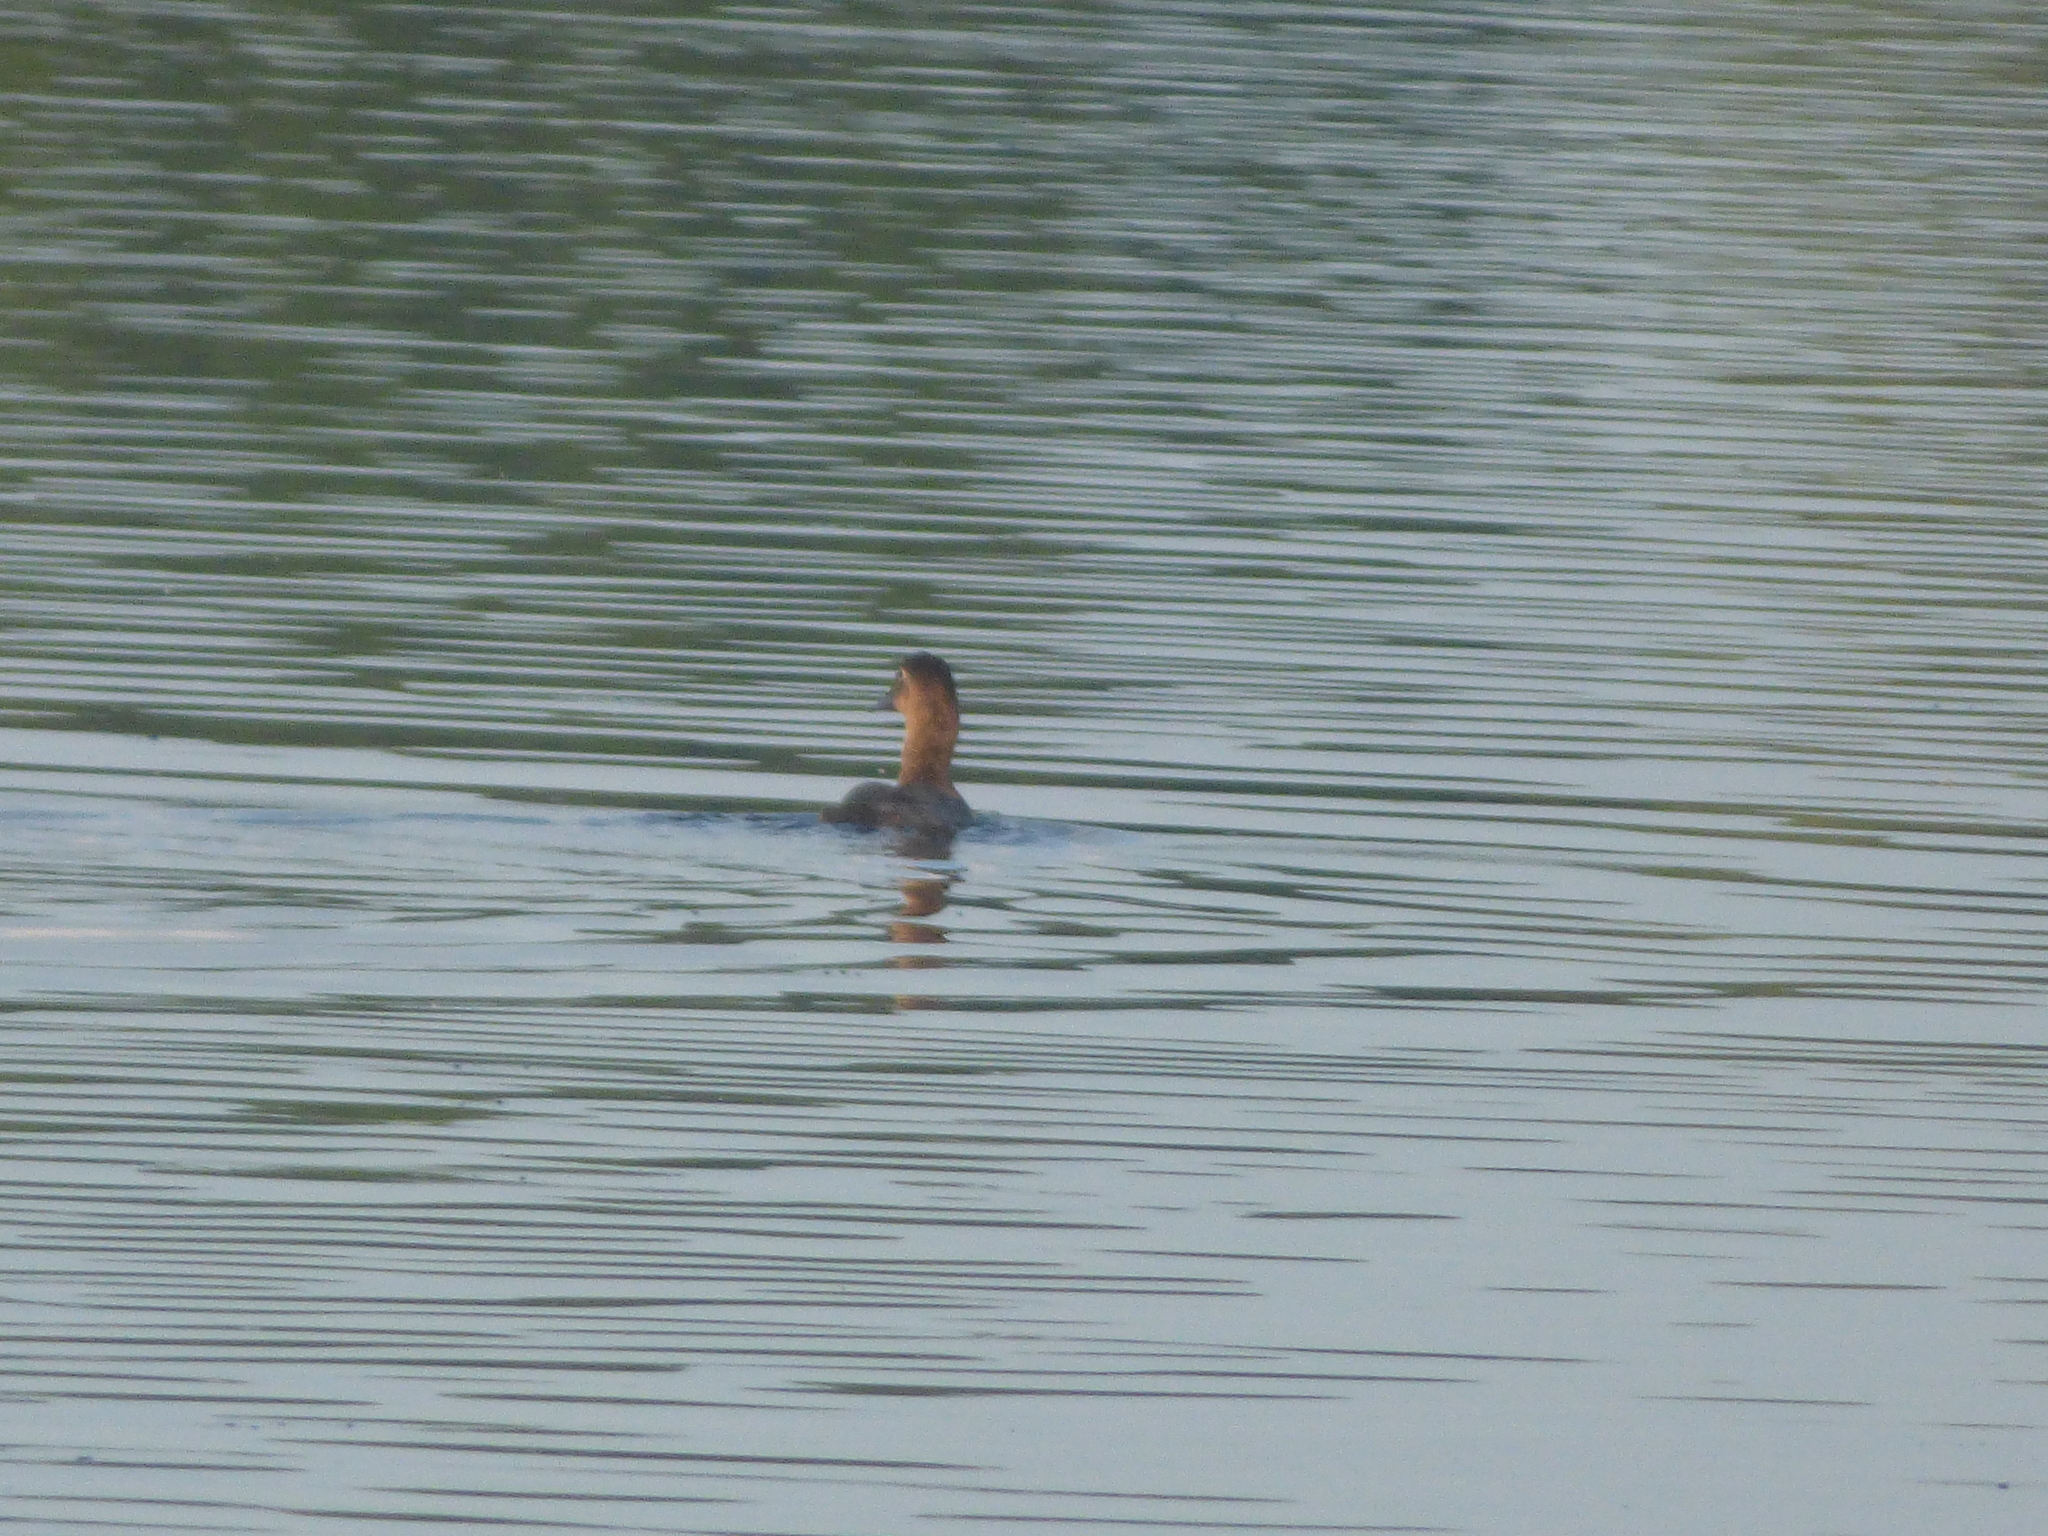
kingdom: Animalia
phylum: Chordata
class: Aves
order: Anseriformes
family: Anatidae
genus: Aythya
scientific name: Aythya valisineria
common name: Canvasback
